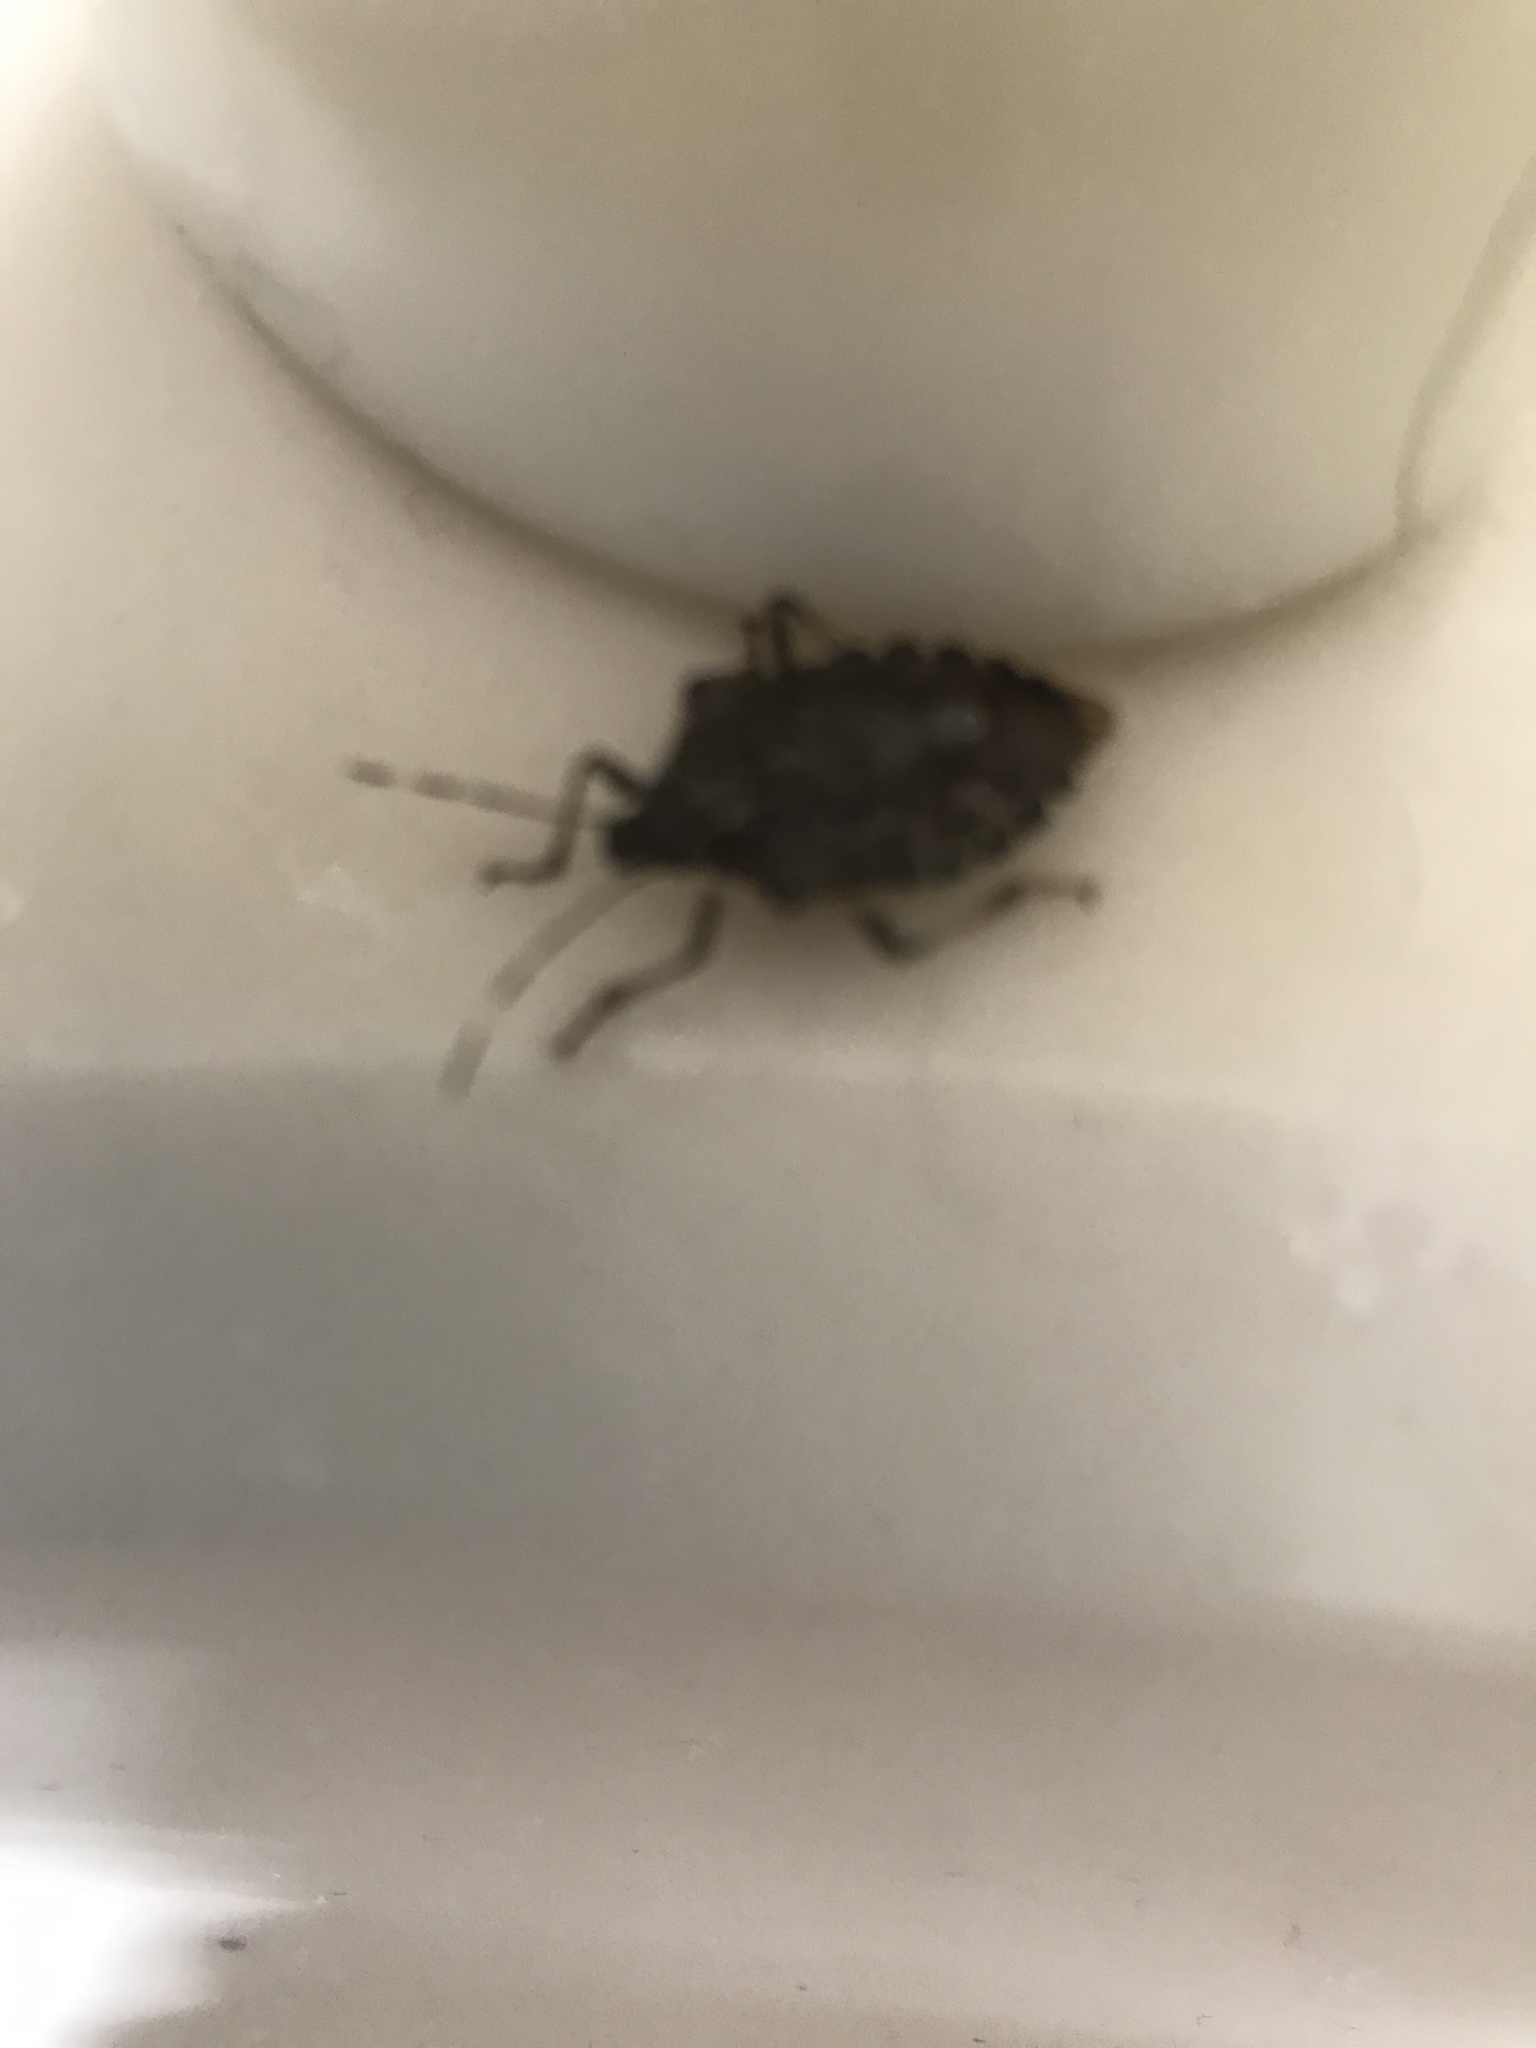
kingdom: Animalia
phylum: Arthropoda
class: Insecta
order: Hemiptera
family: Pentatomidae
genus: Halyomorpha
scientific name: Halyomorpha halys
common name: Brown marmorated stink bug
